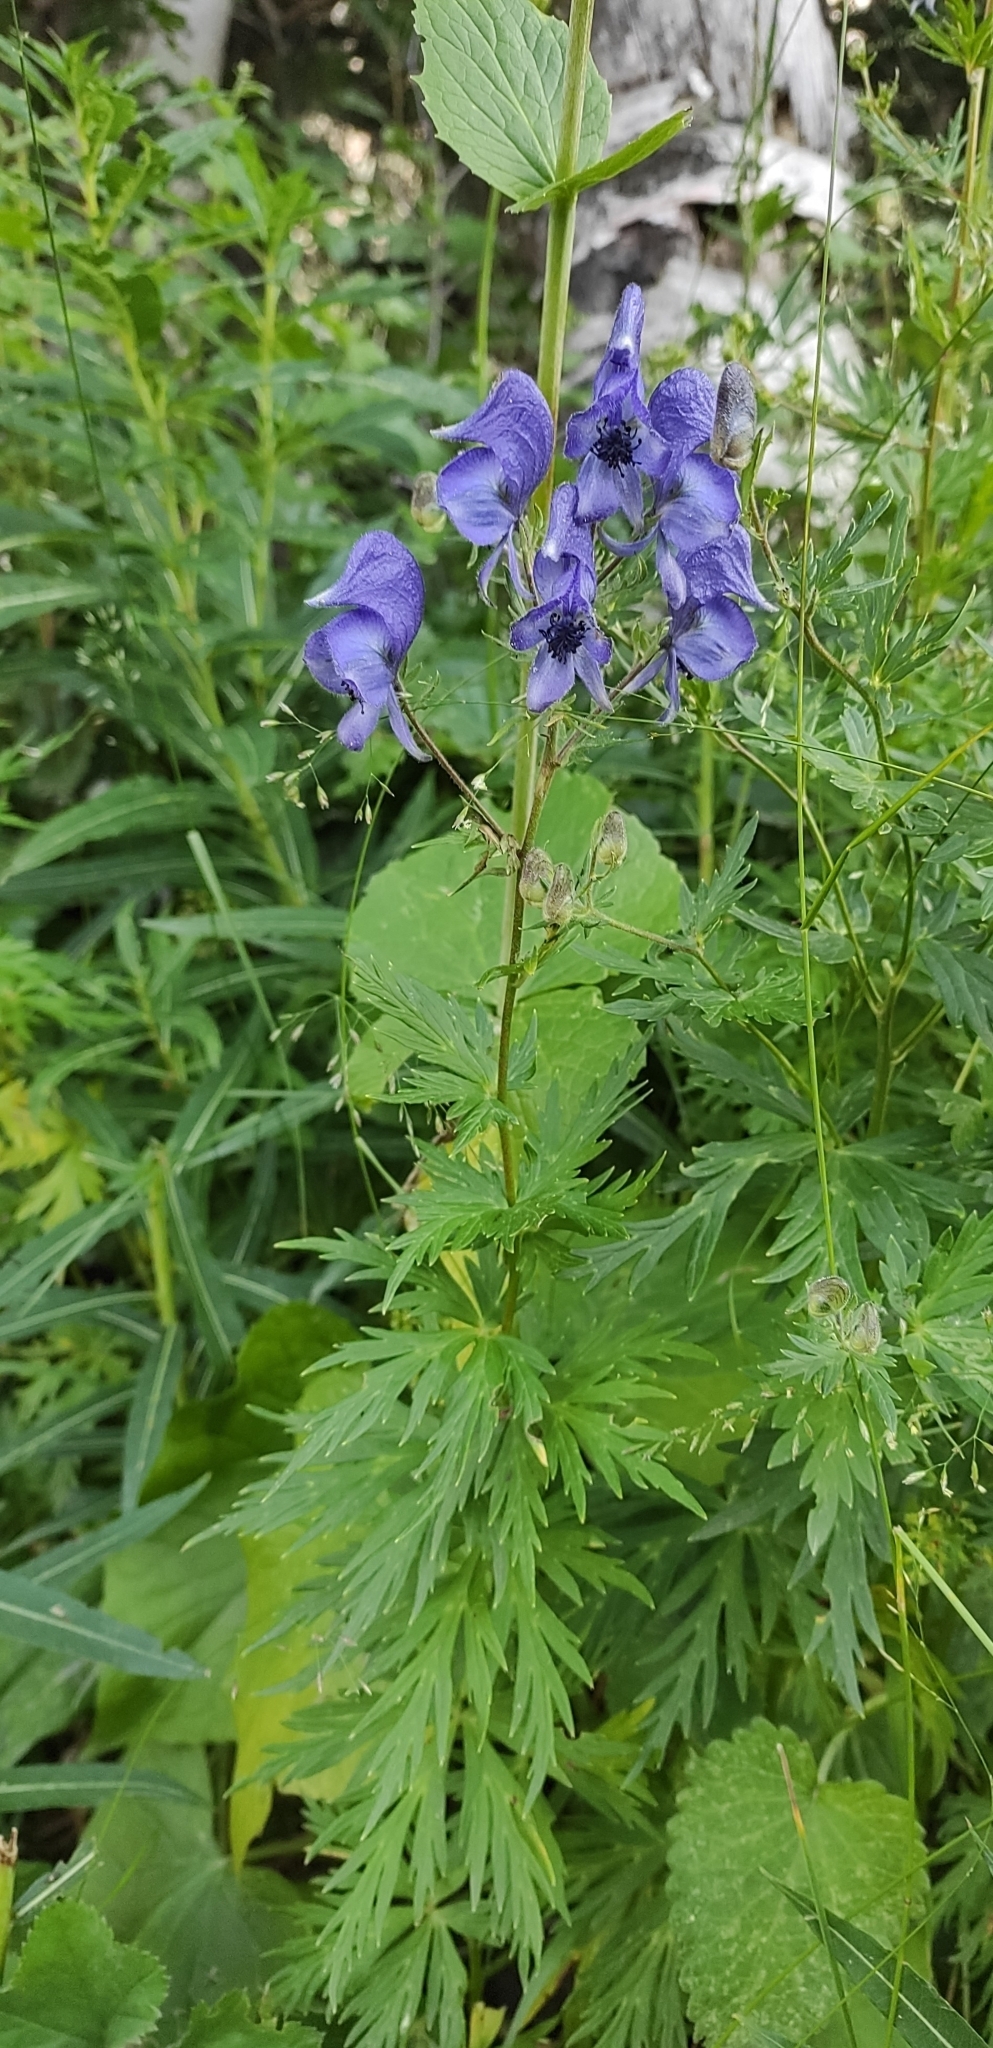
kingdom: Plantae
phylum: Tracheophyta
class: Magnoliopsida
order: Ranunculales
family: Ranunculaceae
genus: Aconitum
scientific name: Aconitum
